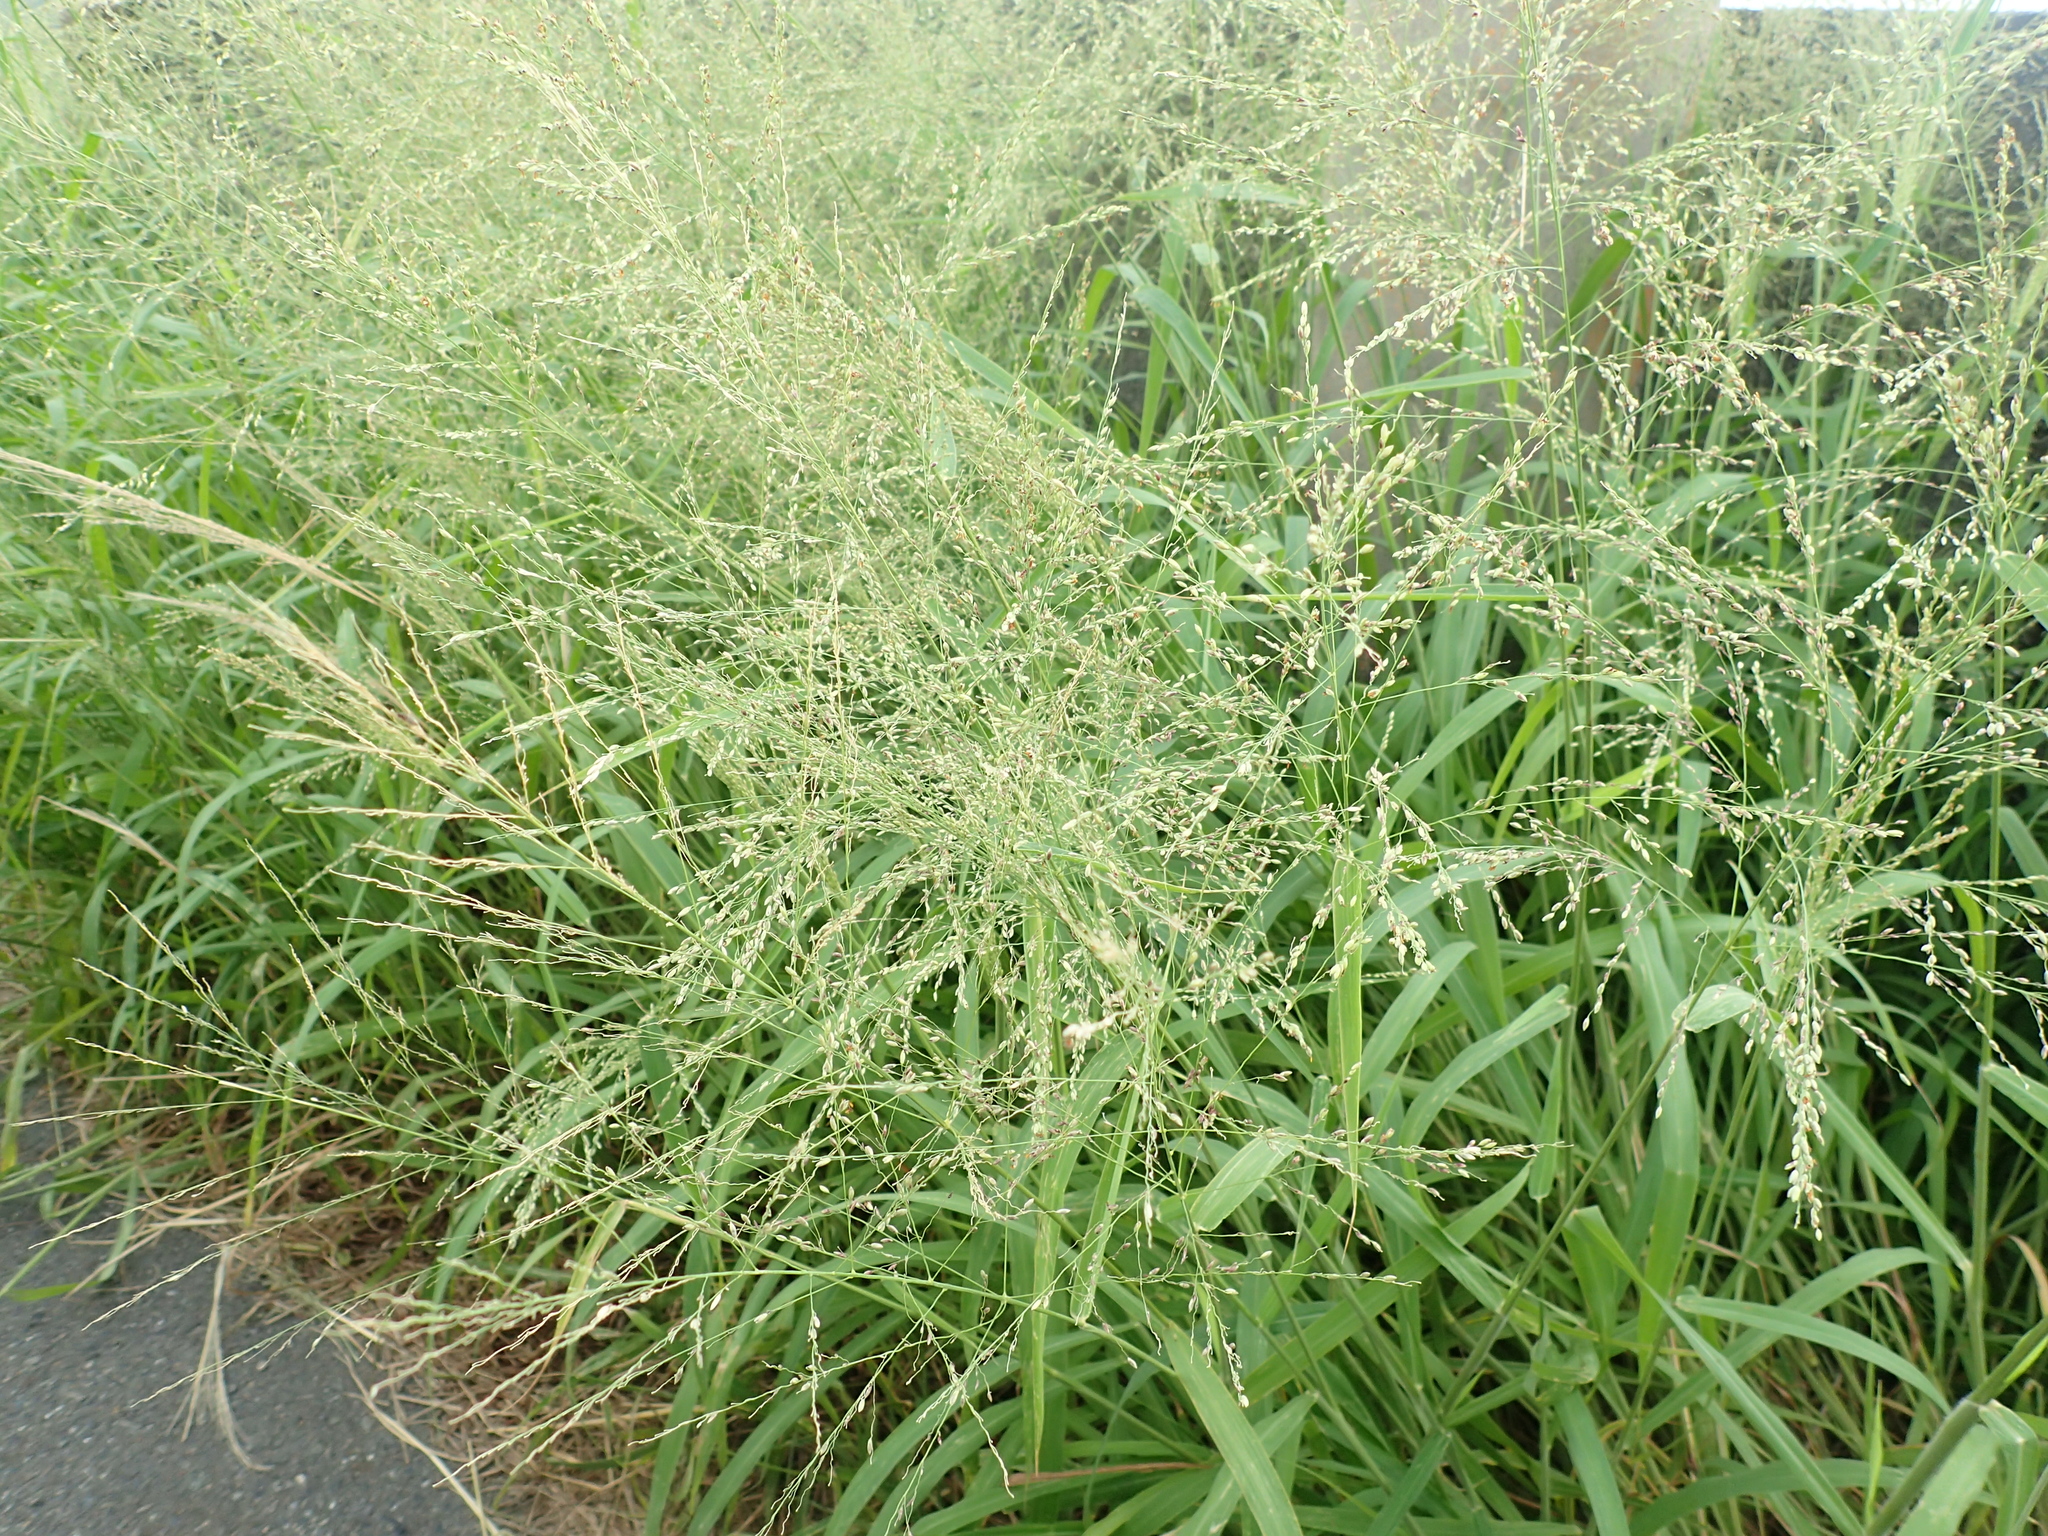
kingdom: Plantae
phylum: Tracheophyta
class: Liliopsida
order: Poales
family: Poaceae
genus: Megathyrsus
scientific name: Megathyrsus maximus
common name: Guineagrass
